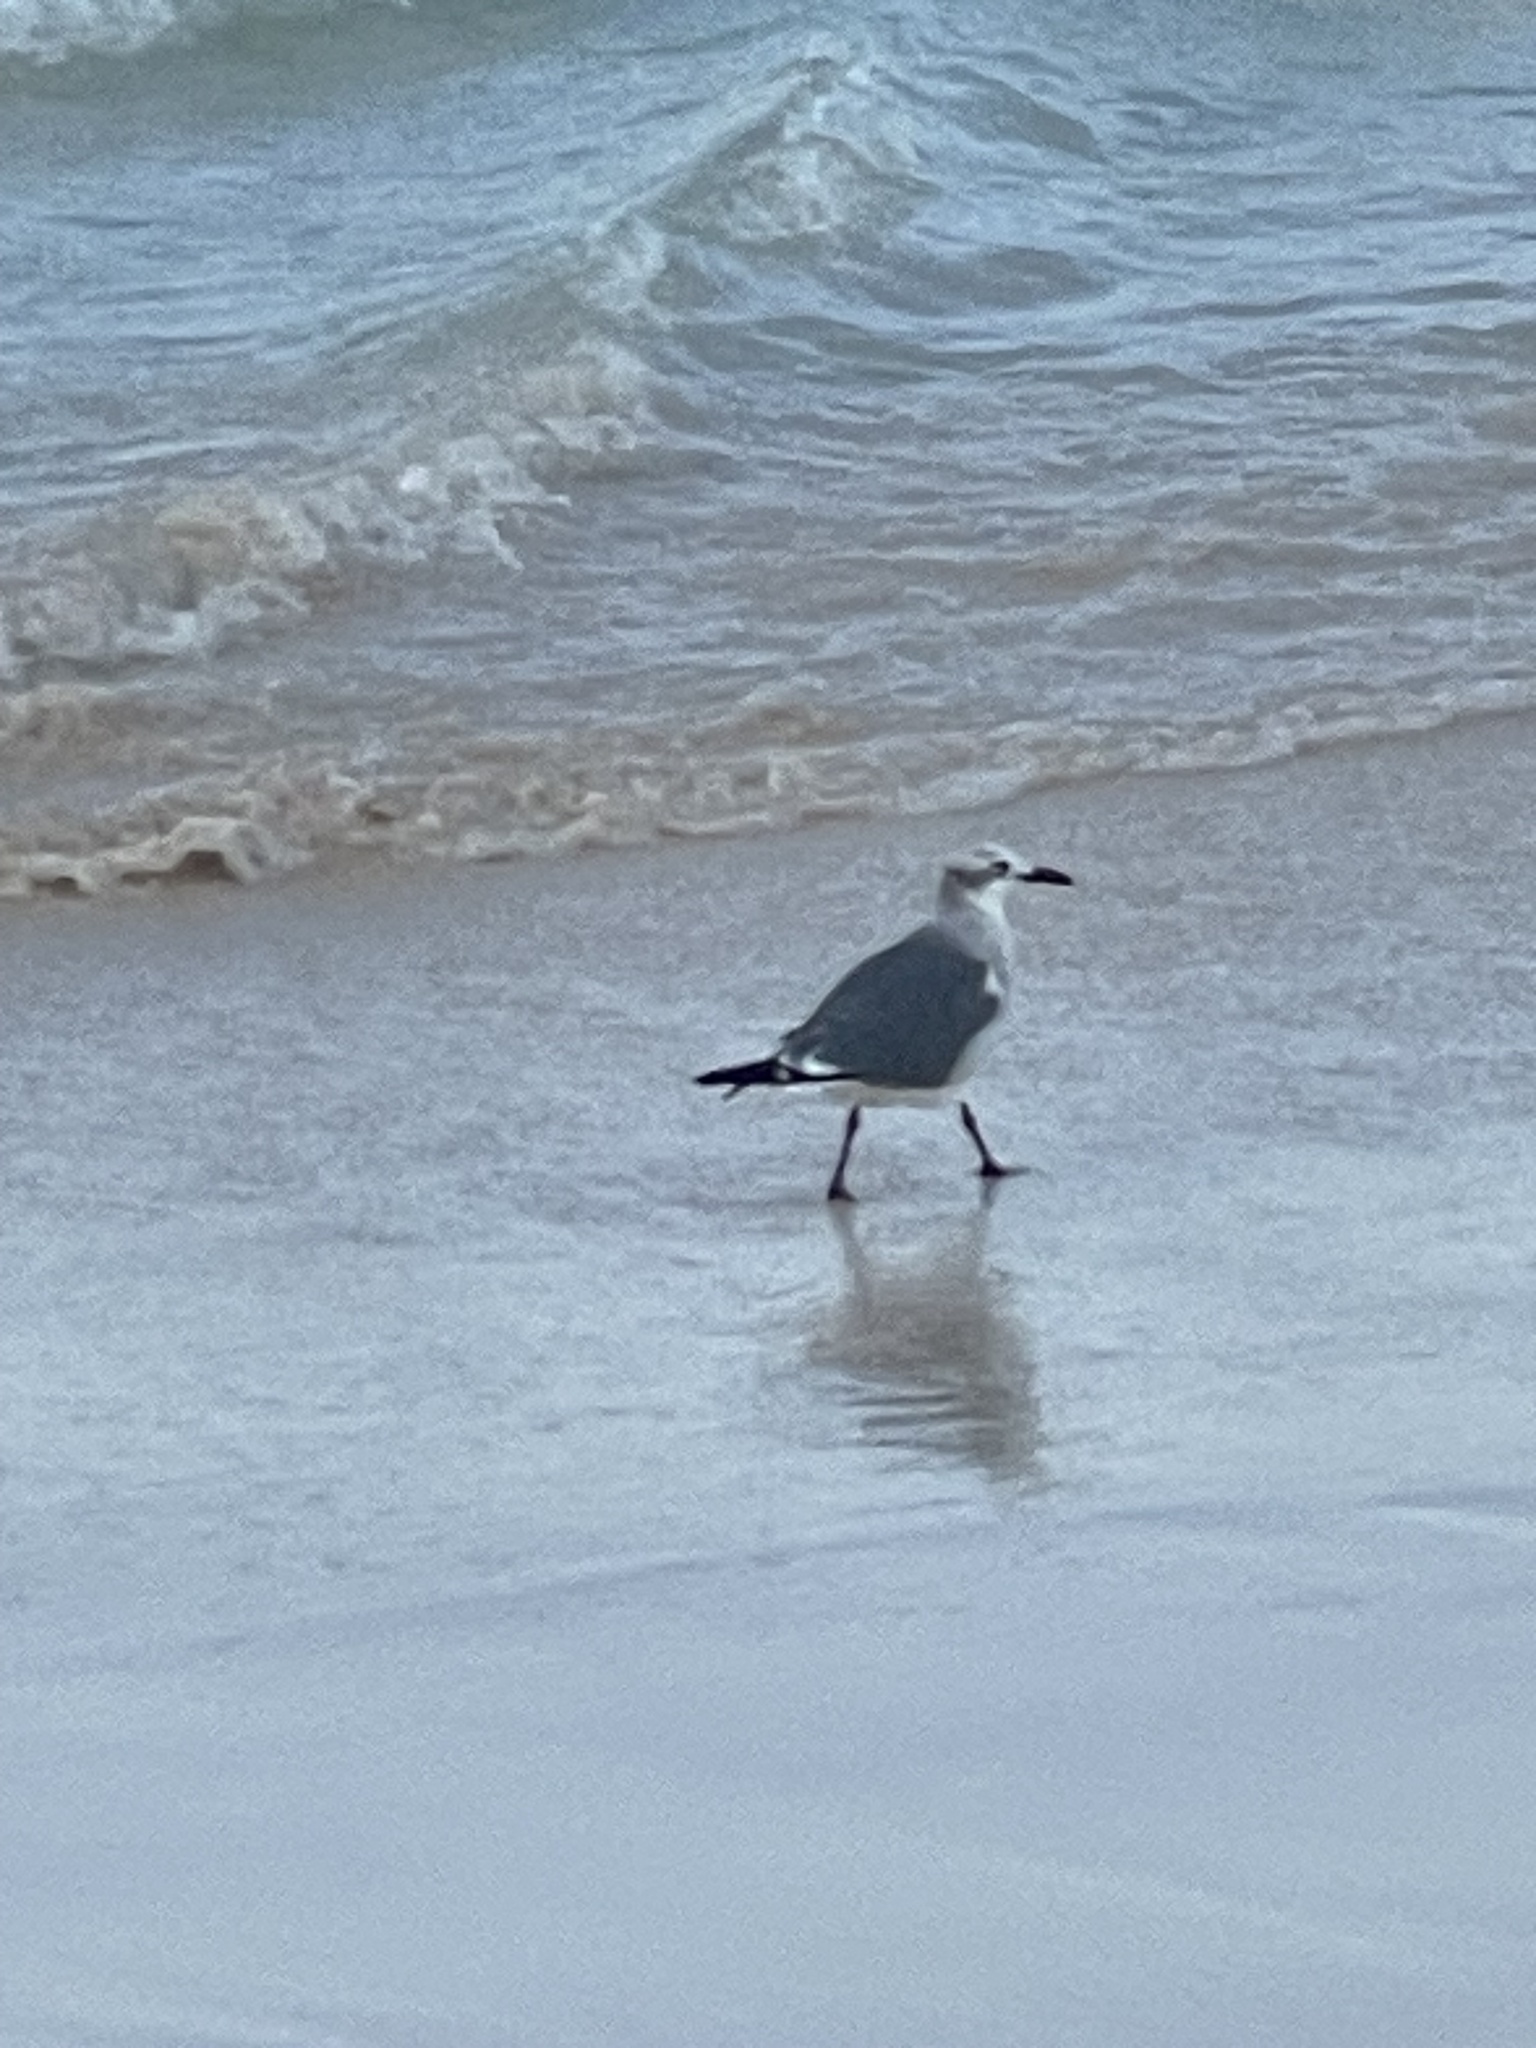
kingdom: Animalia
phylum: Chordata
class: Aves
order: Charadriiformes
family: Laridae
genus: Leucophaeus
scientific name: Leucophaeus atricilla
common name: Laughing gull
